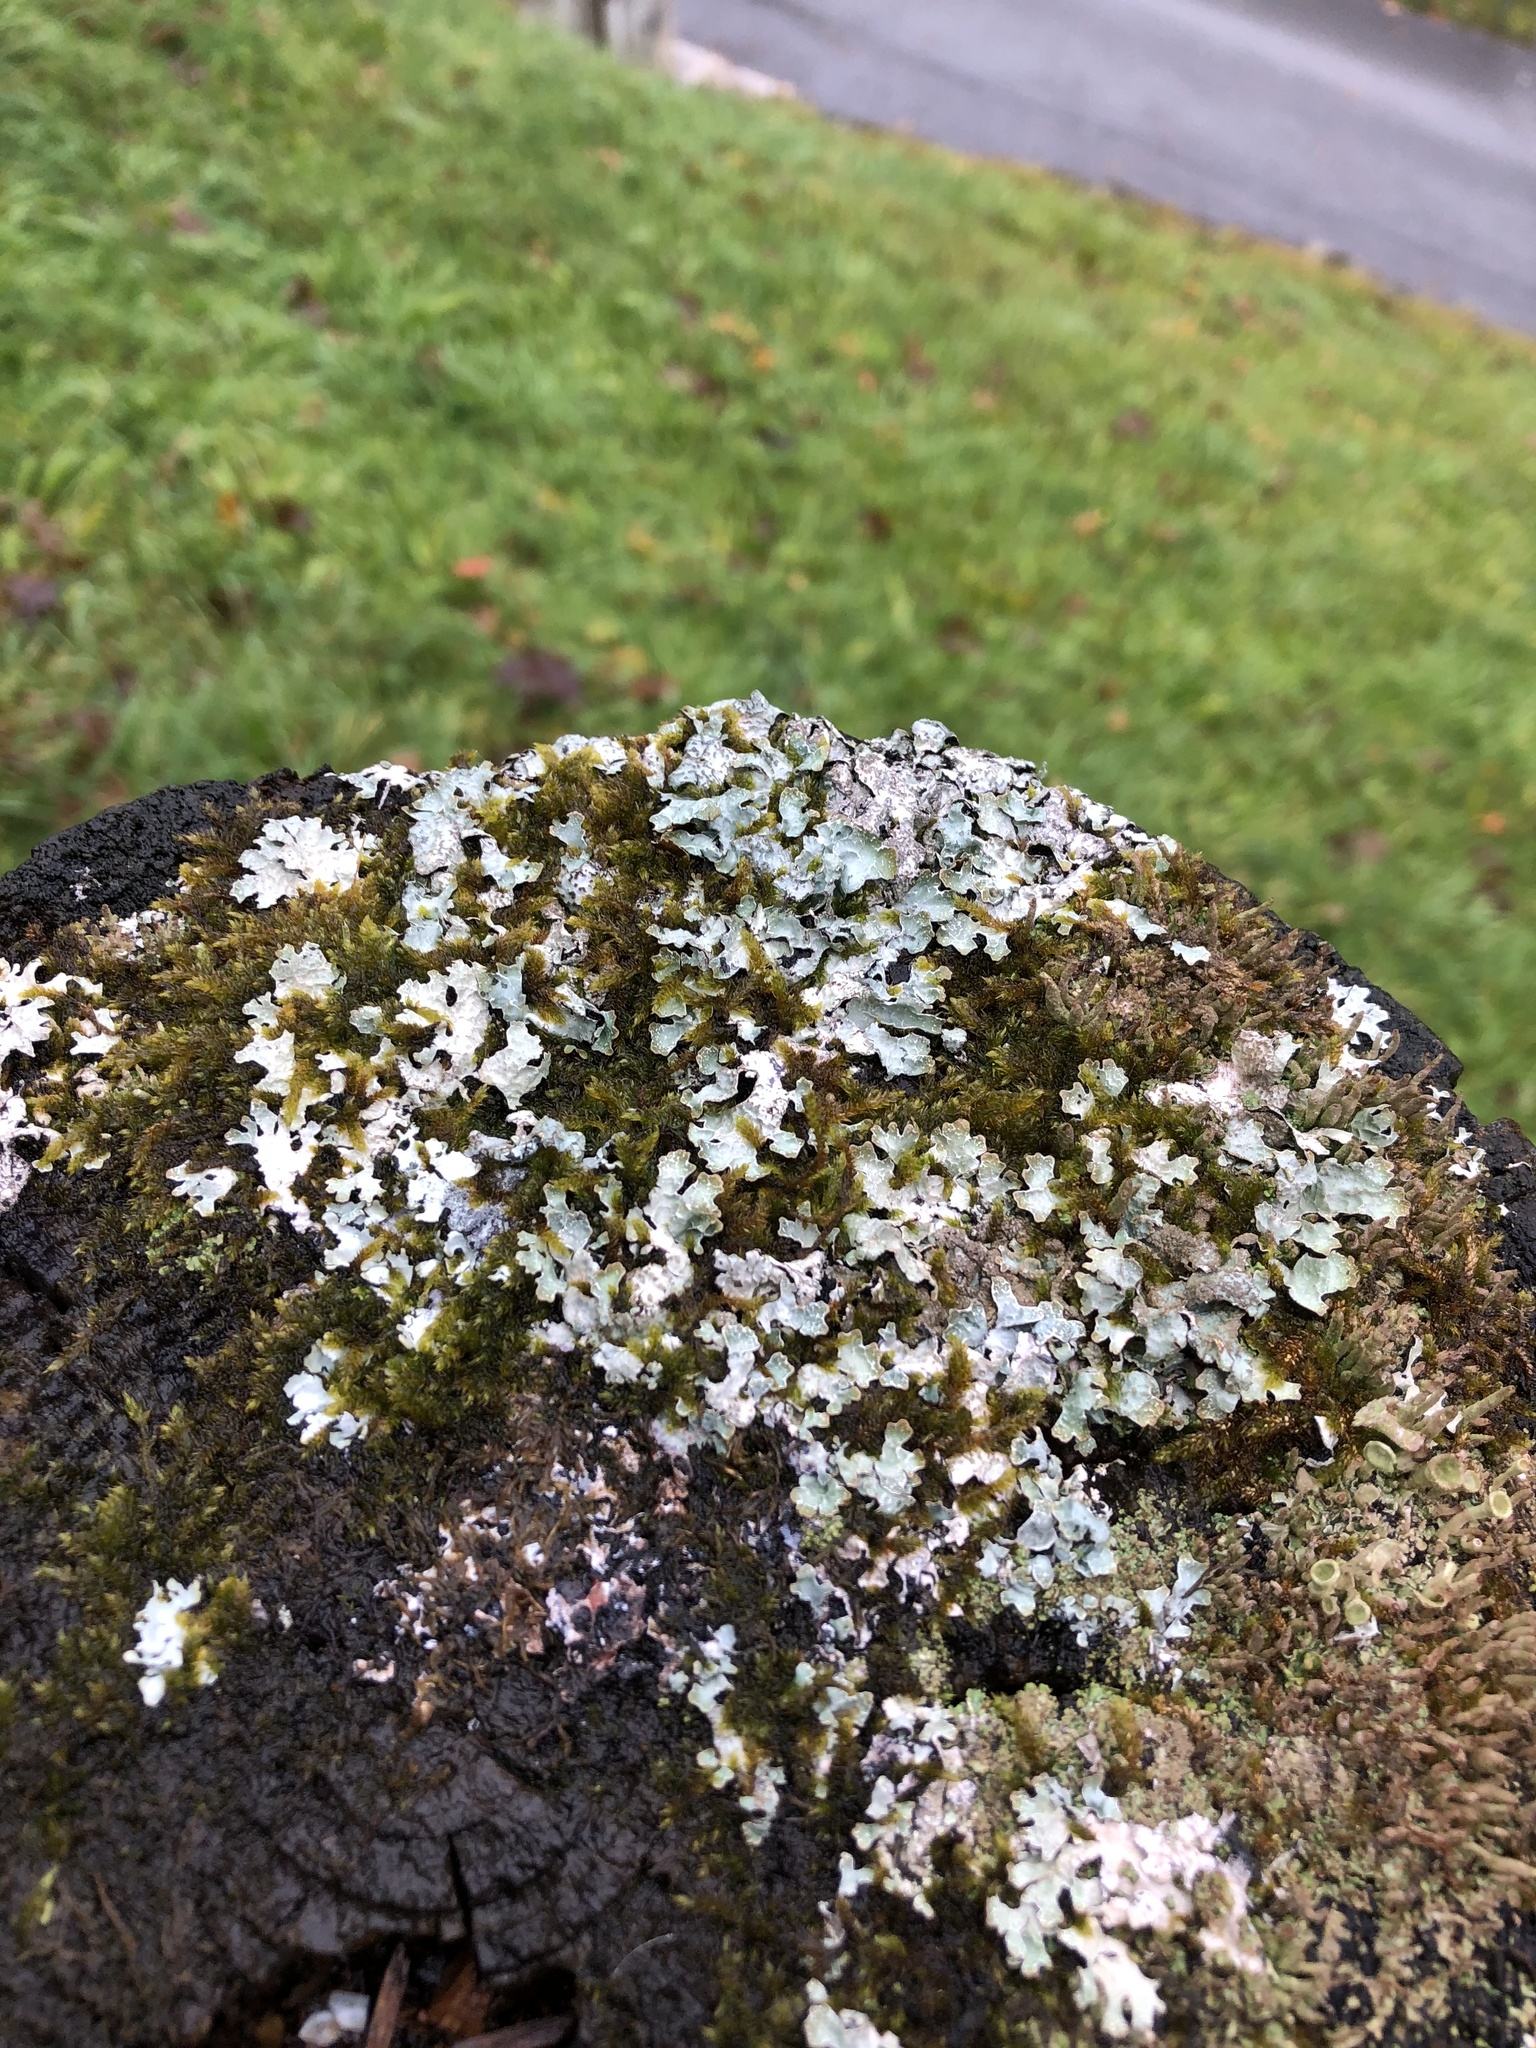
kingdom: Fungi
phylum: Ascomycota
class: Lecanoromycetes
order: Lecanorales
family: Parmeliaceae
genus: Parmelia
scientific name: Parmelia sulcata
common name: Netted shield lichen
